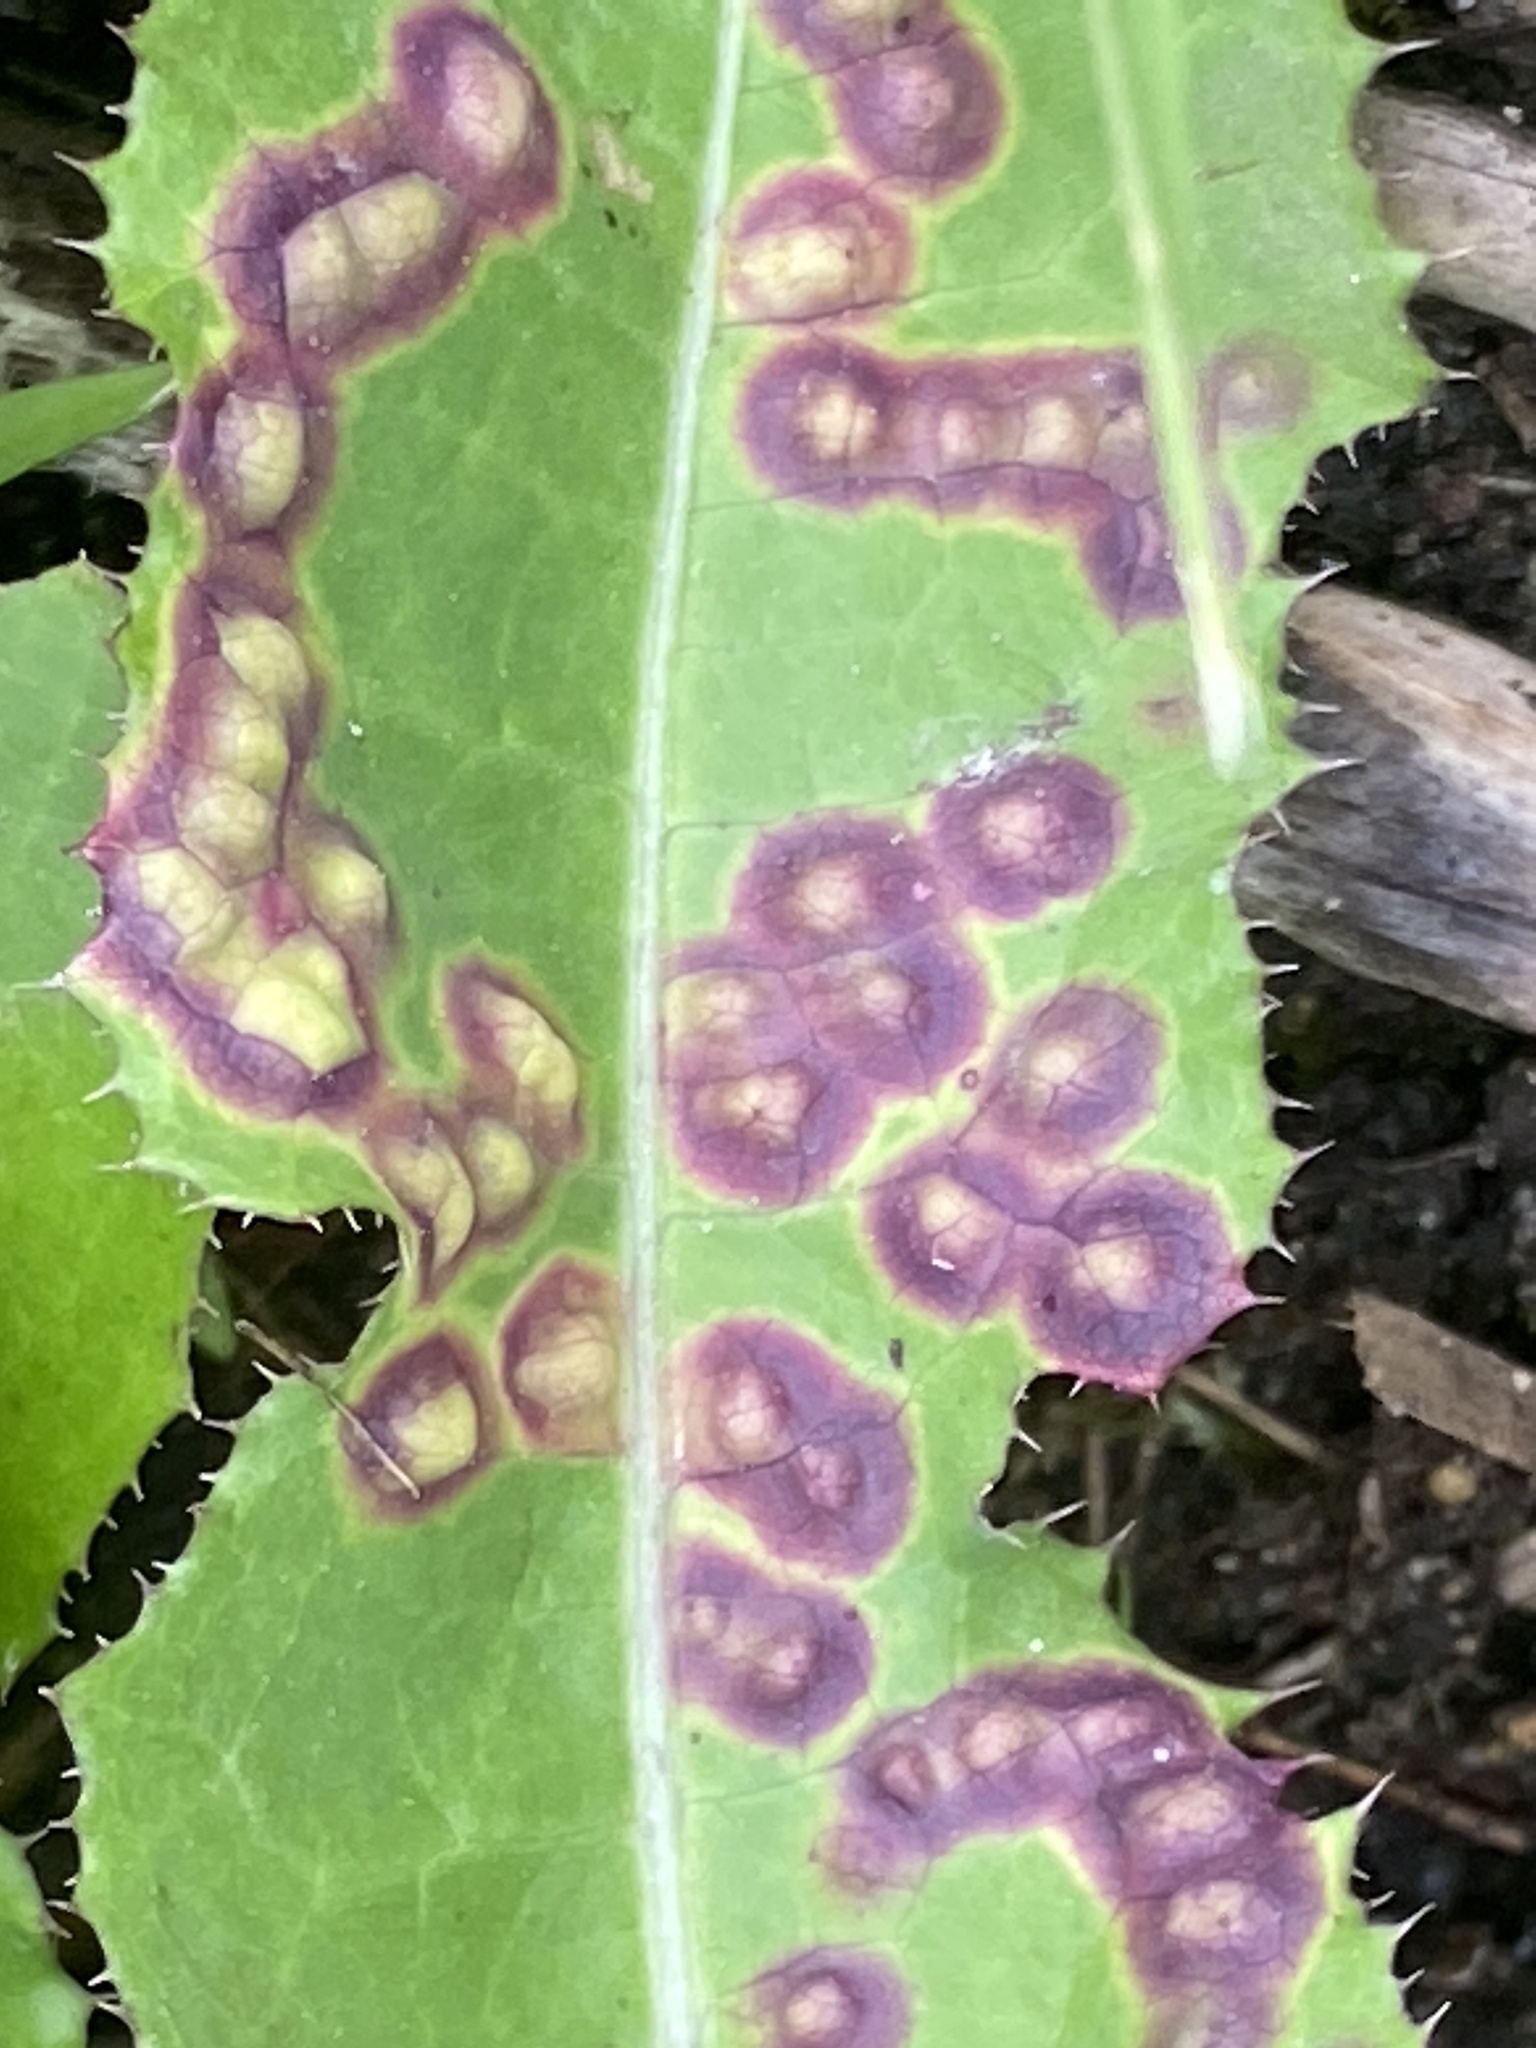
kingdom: Animalia
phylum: Arthropoda
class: Insecta
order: Diptera
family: Cecidomyiidae
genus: Cystiphora
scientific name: Cystiphora sonchi
